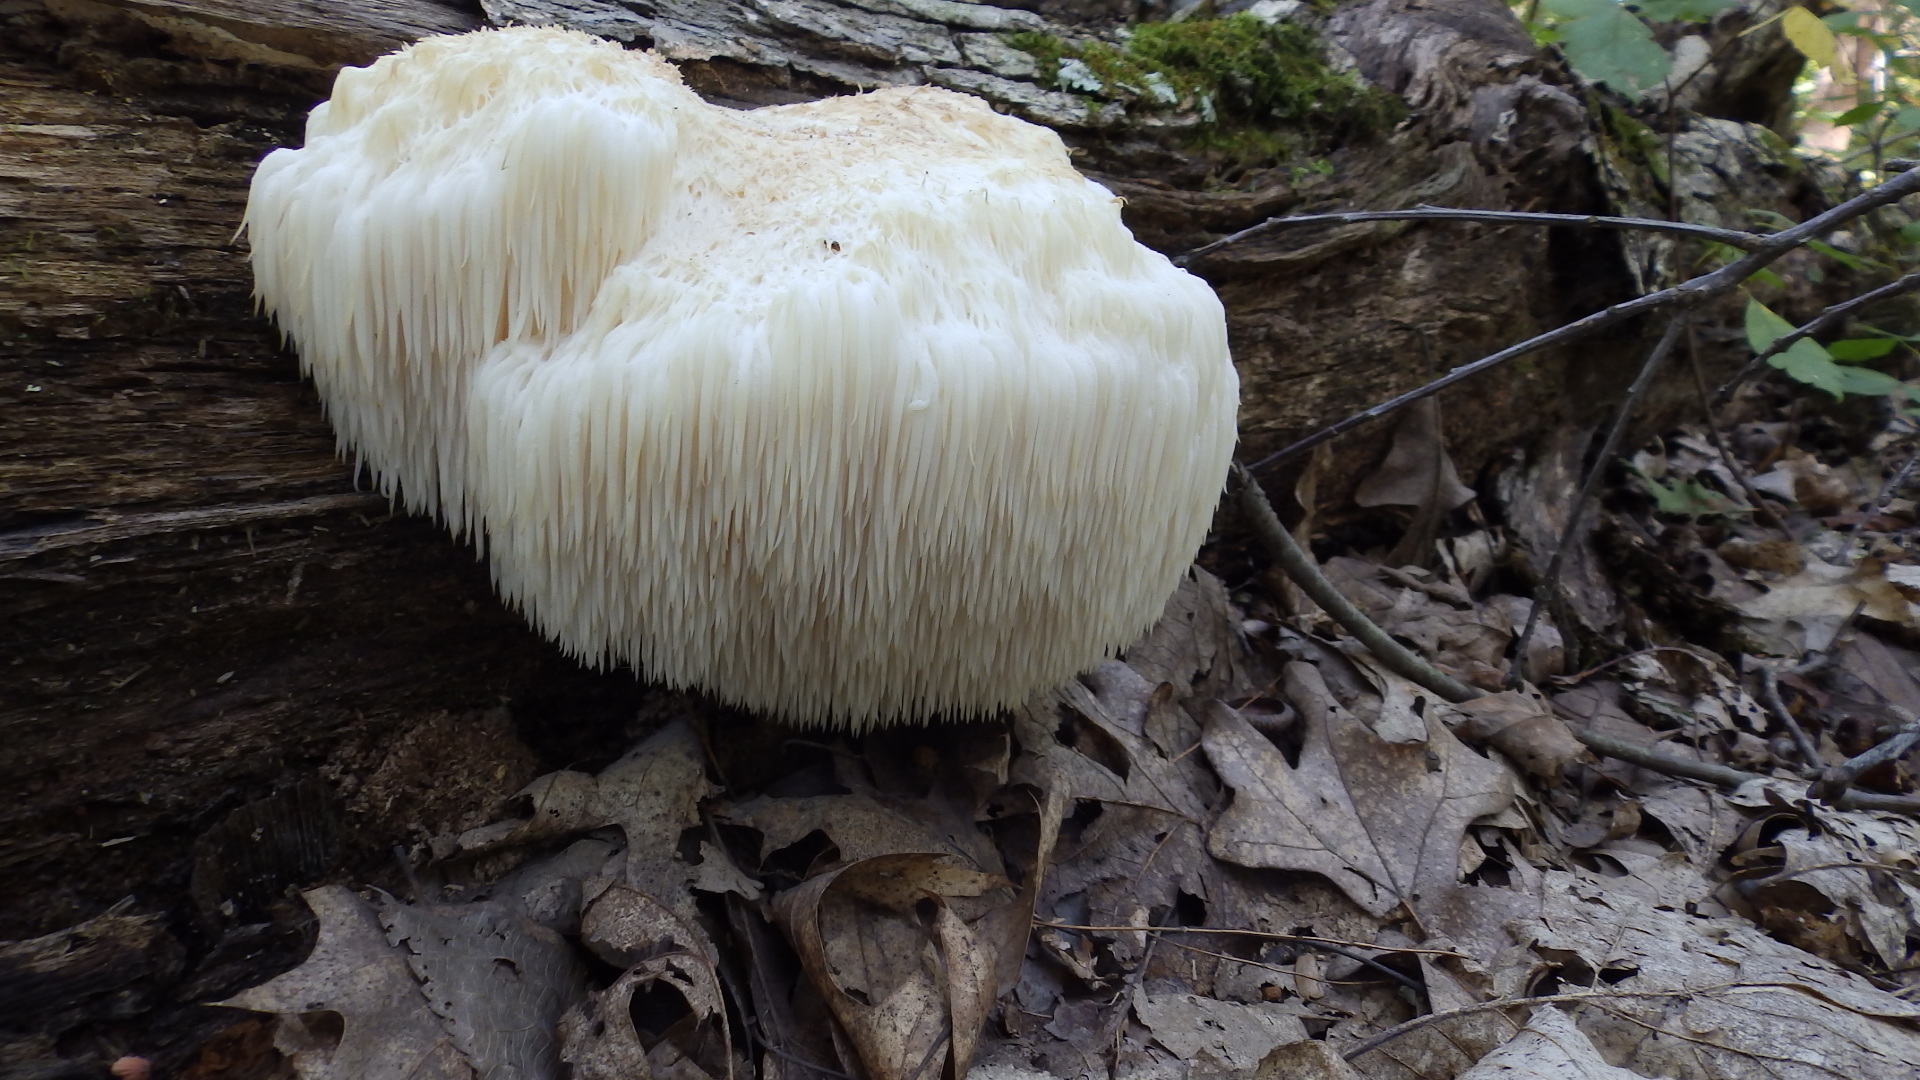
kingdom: Fungi
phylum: Basidiomycota
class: Agaricomycetes
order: Russulales
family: Hericiaceae
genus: Hericium
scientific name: Hericium erinaceus
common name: Bearded tooth
